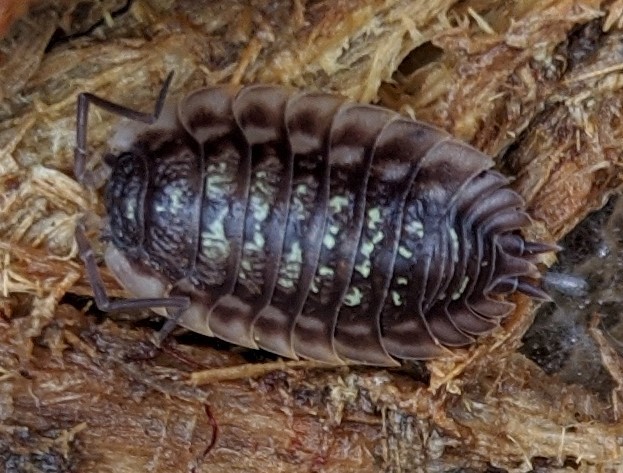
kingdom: Animalia
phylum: Arthropoda
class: Malacostraca
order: Isopoda
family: Oniscidae
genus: Oniscus
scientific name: Oniscus asellus
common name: Common shiny woodlouse
